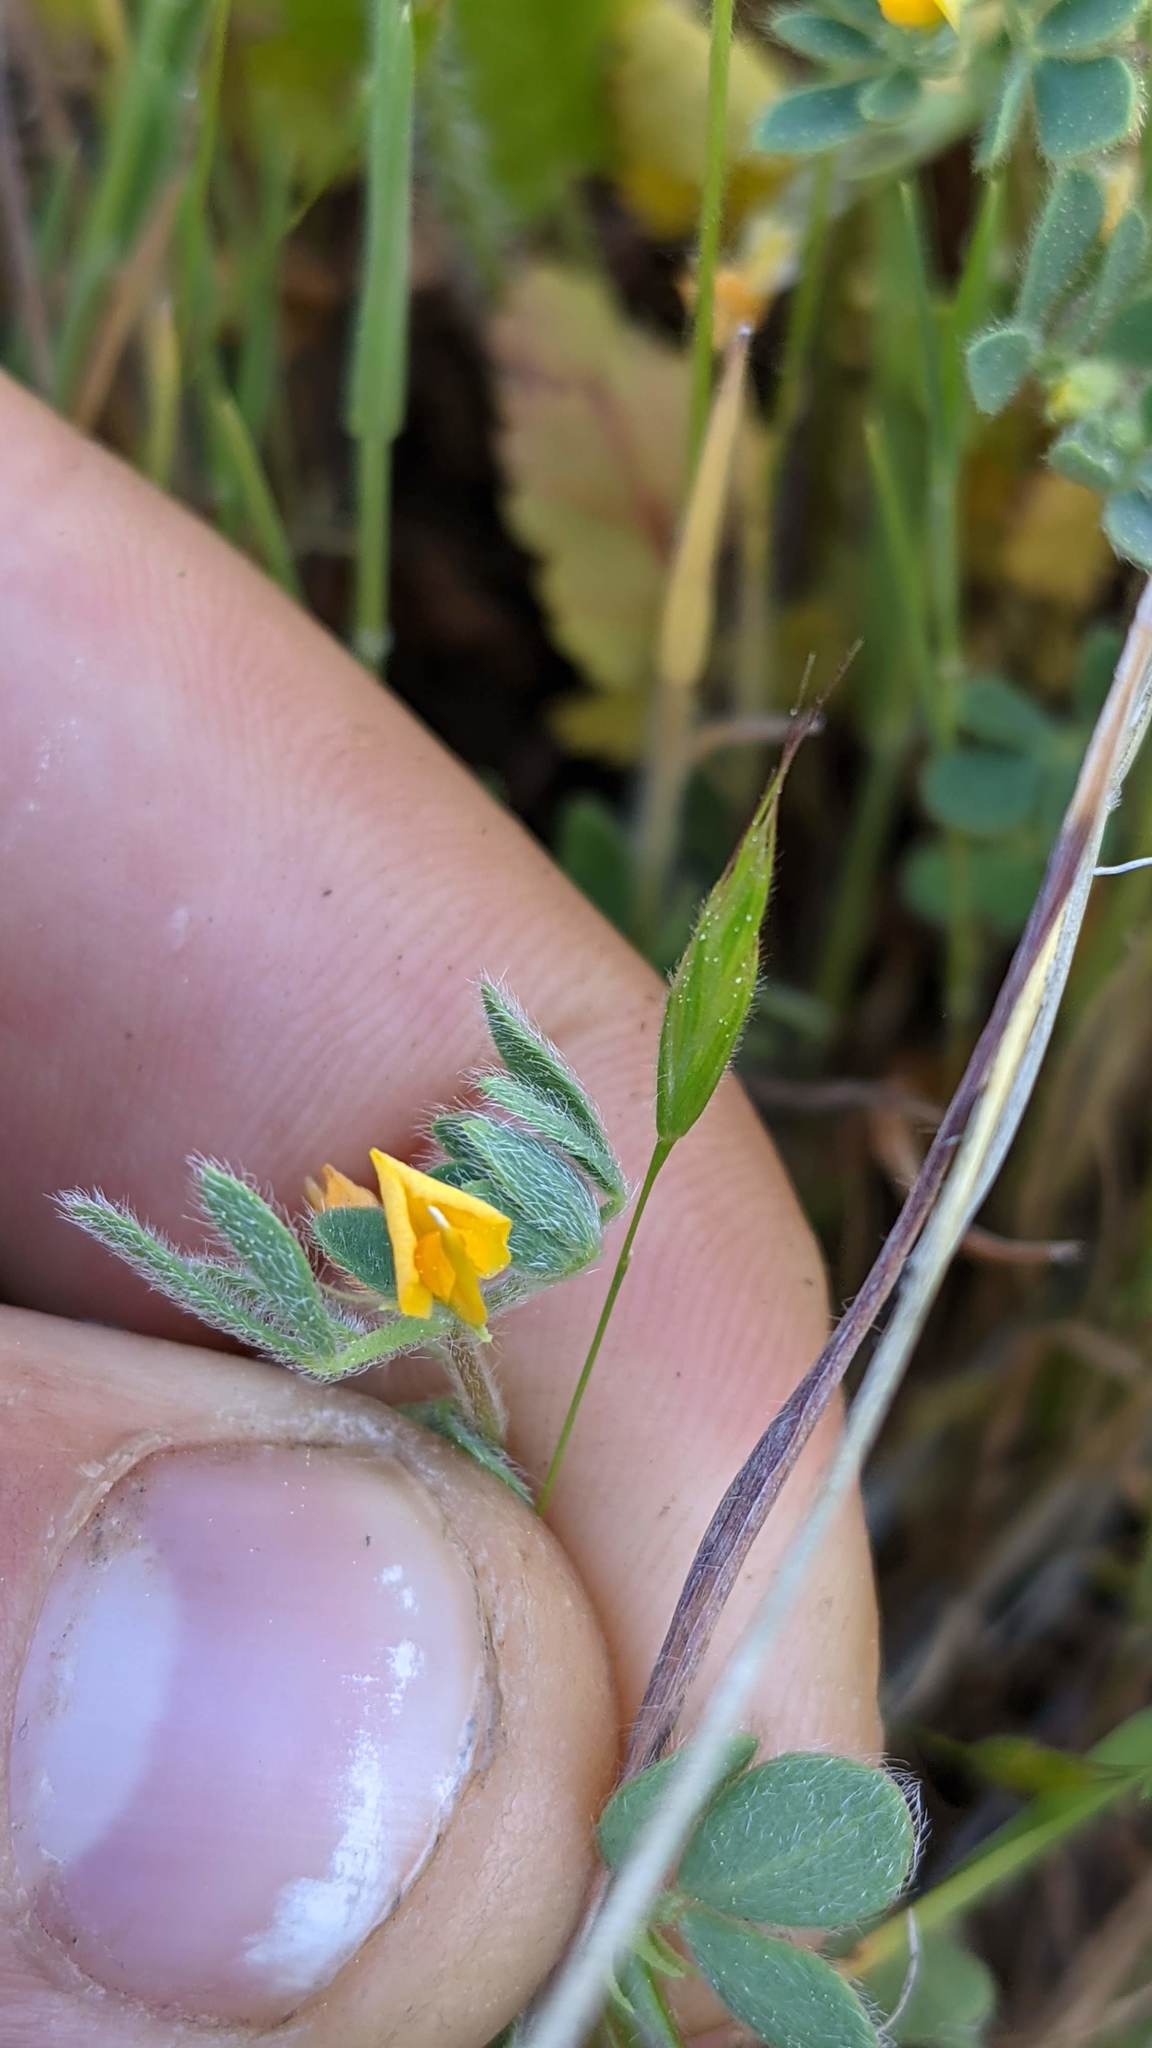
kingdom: Plantae
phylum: Tracheophyta
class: Magnoliopsida
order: Fabales
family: Fabaceae
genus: Acmispon
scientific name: Acmispon brachycarpus
